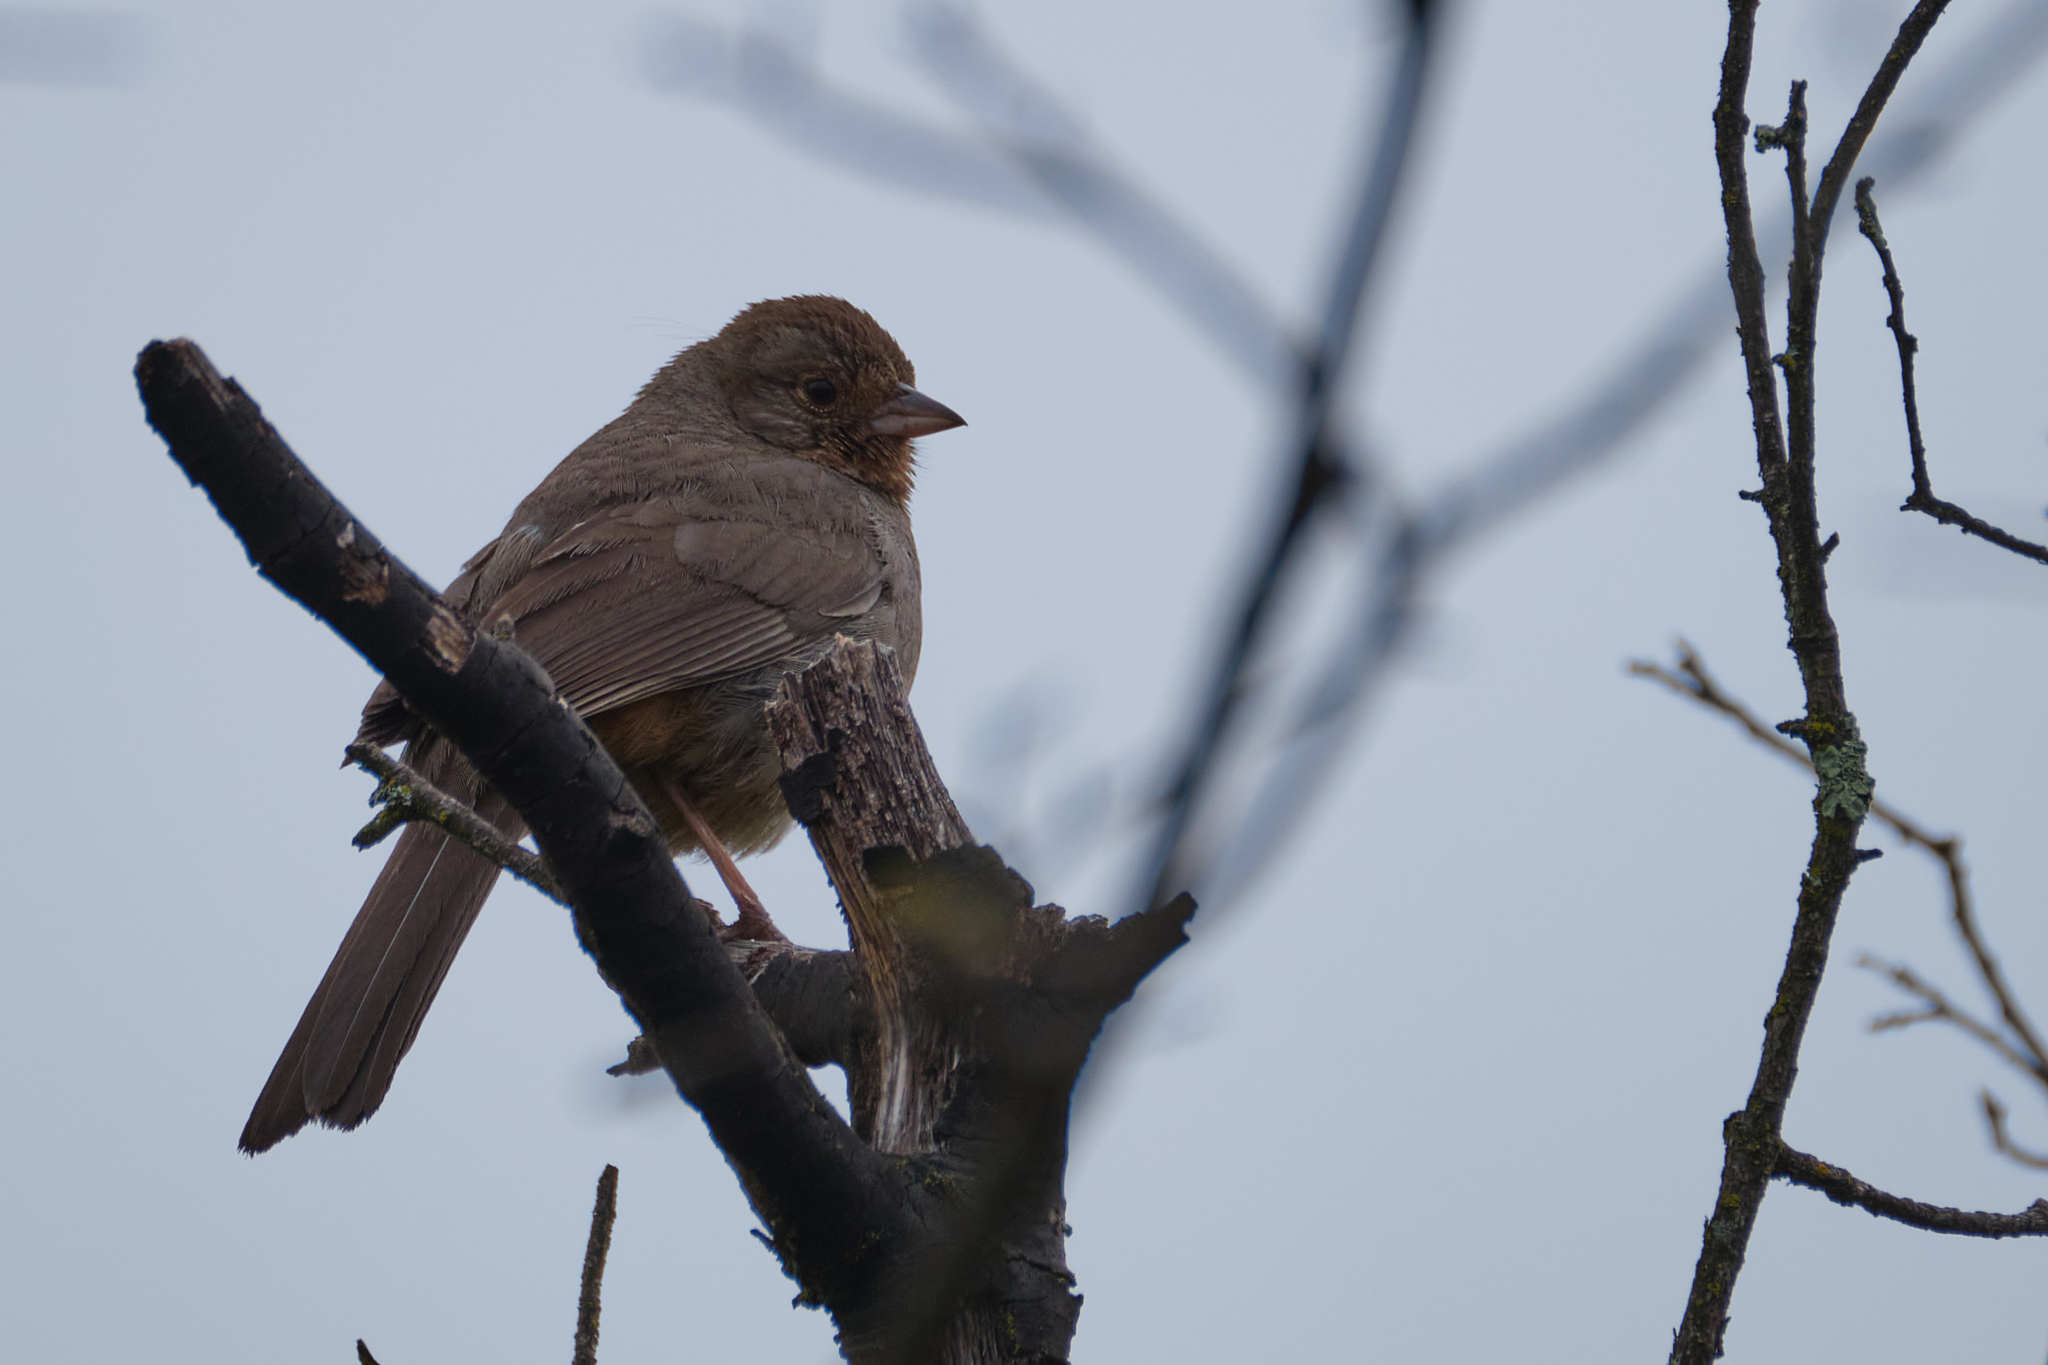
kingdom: Animalia
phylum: Chordata
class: Aves
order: Passeriformes
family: Passerellidae
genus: Melozone
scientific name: Melozone crissalis
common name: California towhee
